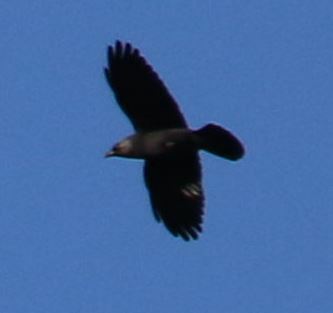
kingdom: Animalia
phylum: Chordata
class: Aves
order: Passeriformes
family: Corvidae
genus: Coloeus
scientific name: Coloeus monedula
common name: Western jackdaw
